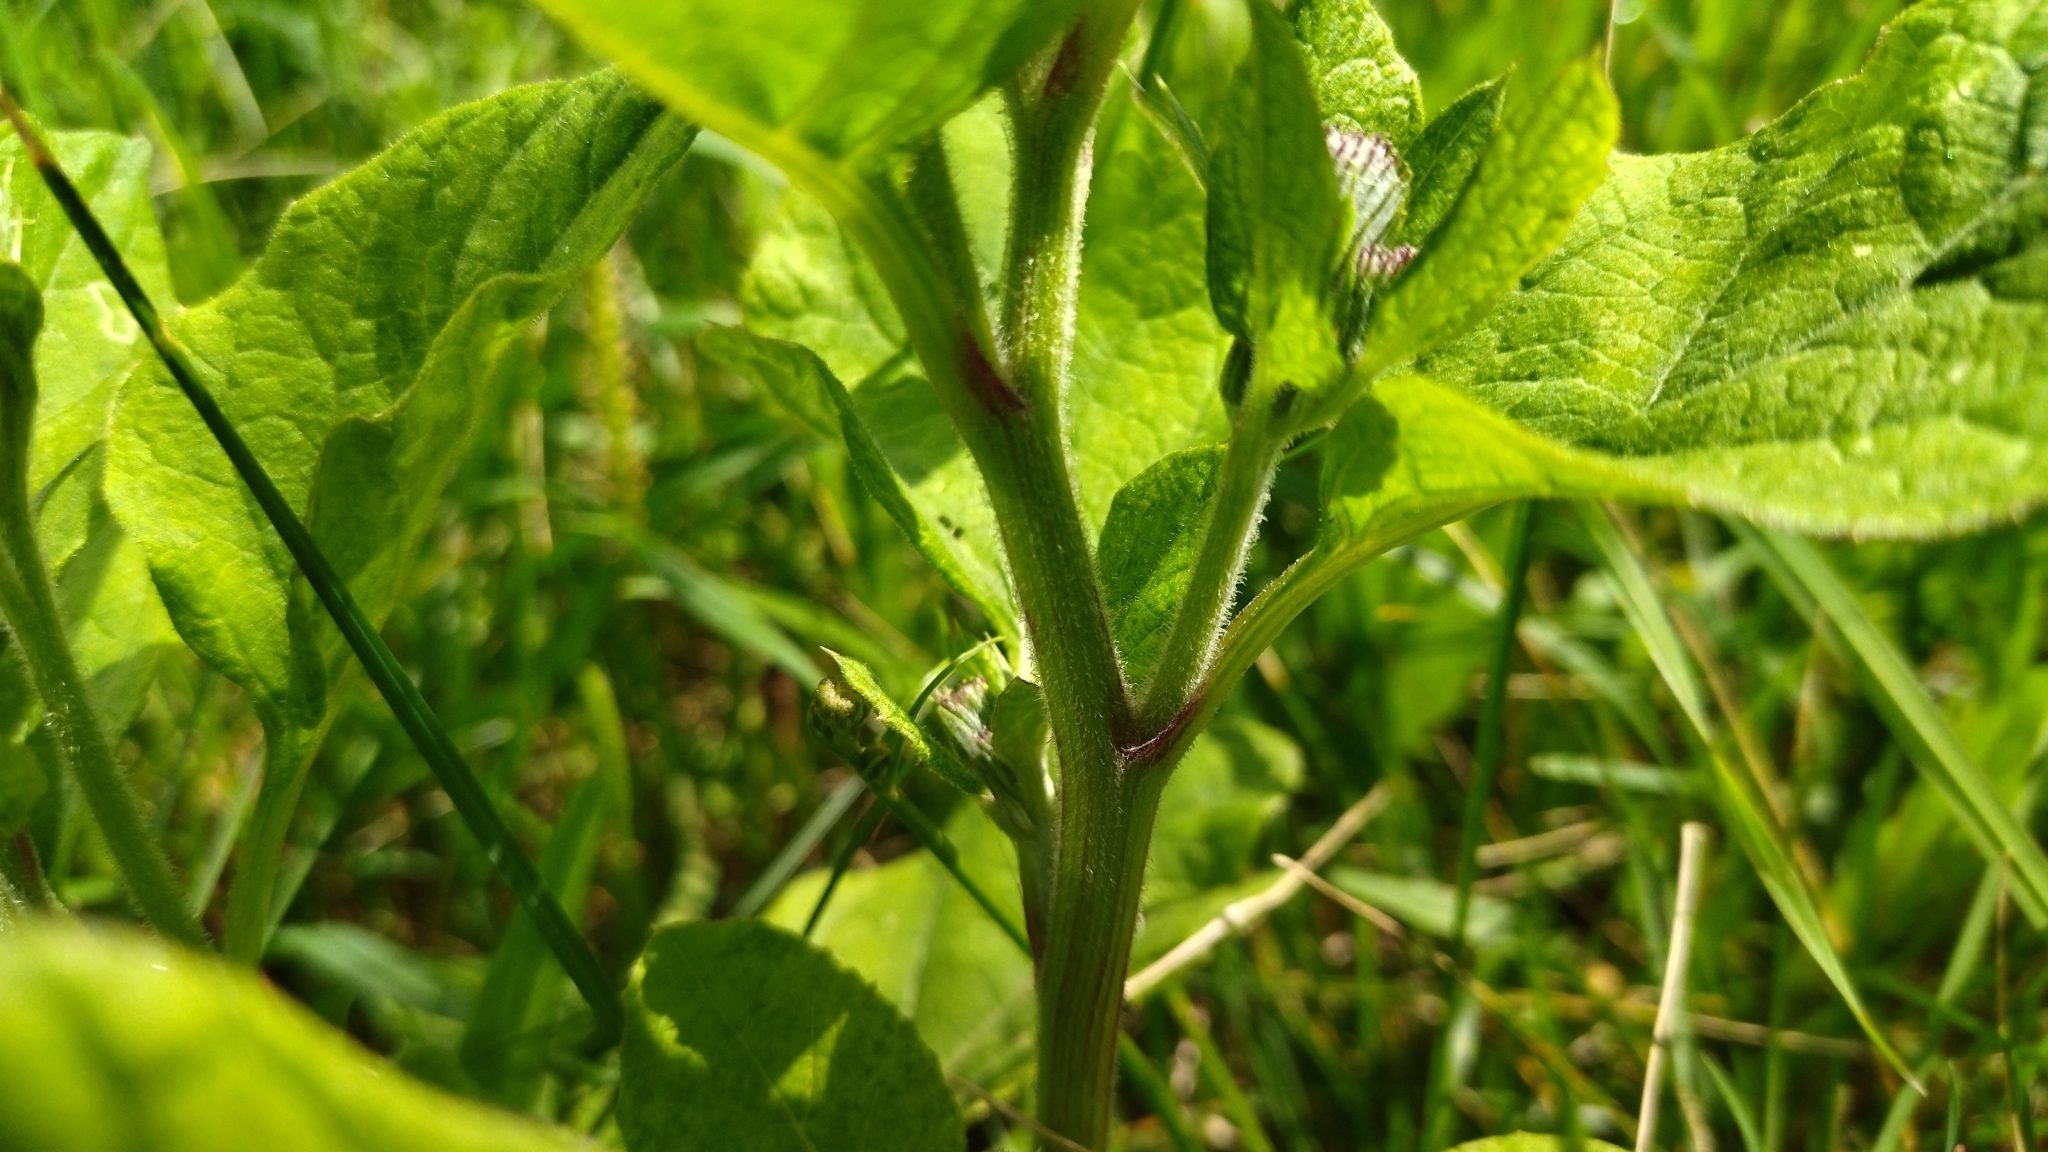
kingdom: Plantae
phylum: Tracheophyta
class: Magnoliopsida
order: Asterales
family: Asteraceae
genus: Arctium
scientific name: Arctium tomentosum
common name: Woolly burdock
